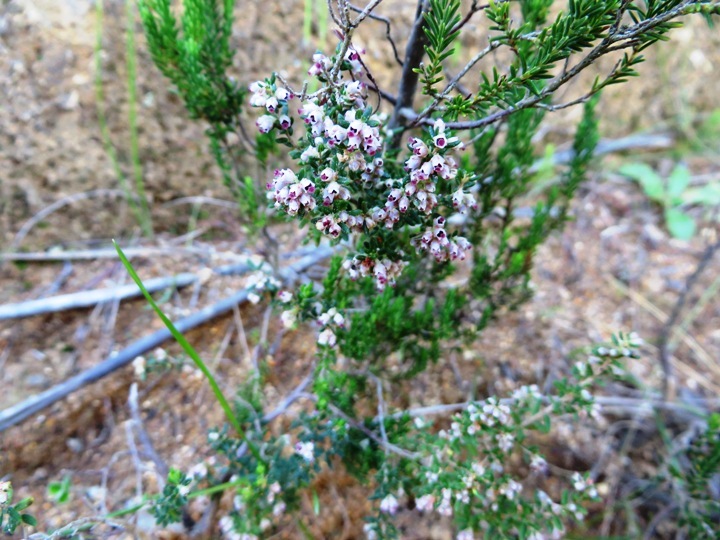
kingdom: Plantae
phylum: Tracheophyta
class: Magnoliopsida
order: Ericales
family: Ericaceae
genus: Erica
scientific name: Erica hispidula
